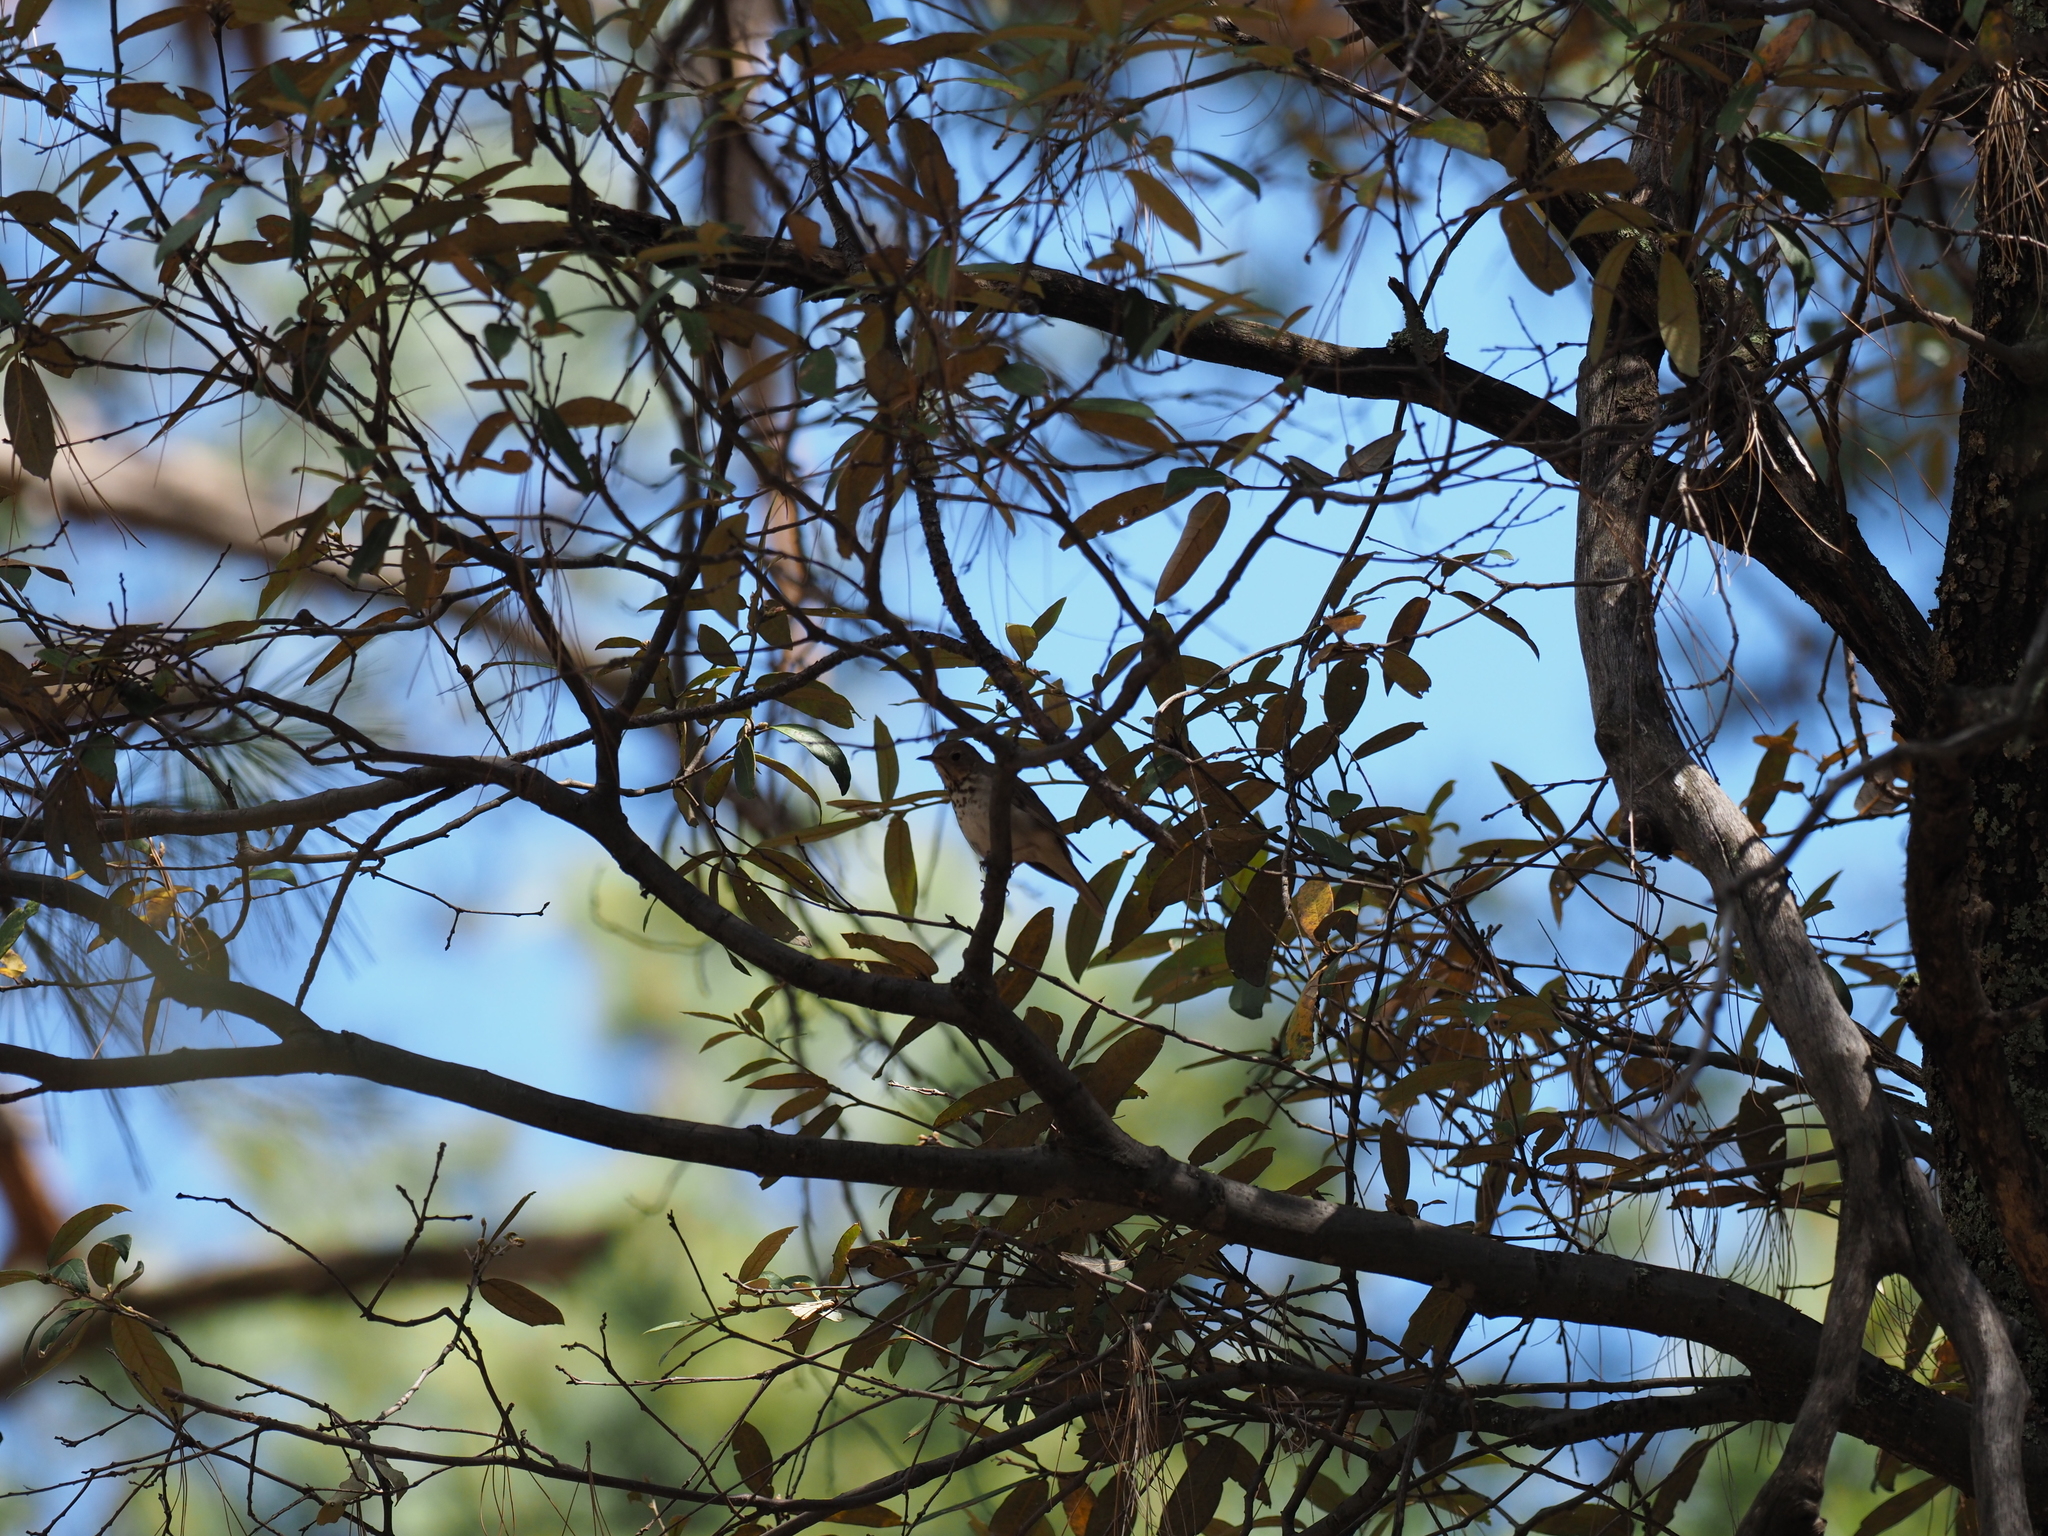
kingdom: Animalia
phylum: Chordata
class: Aves
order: Passeriformes
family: Turdidae
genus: Catharus
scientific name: Catharus guttatus
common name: Hermit thrush
